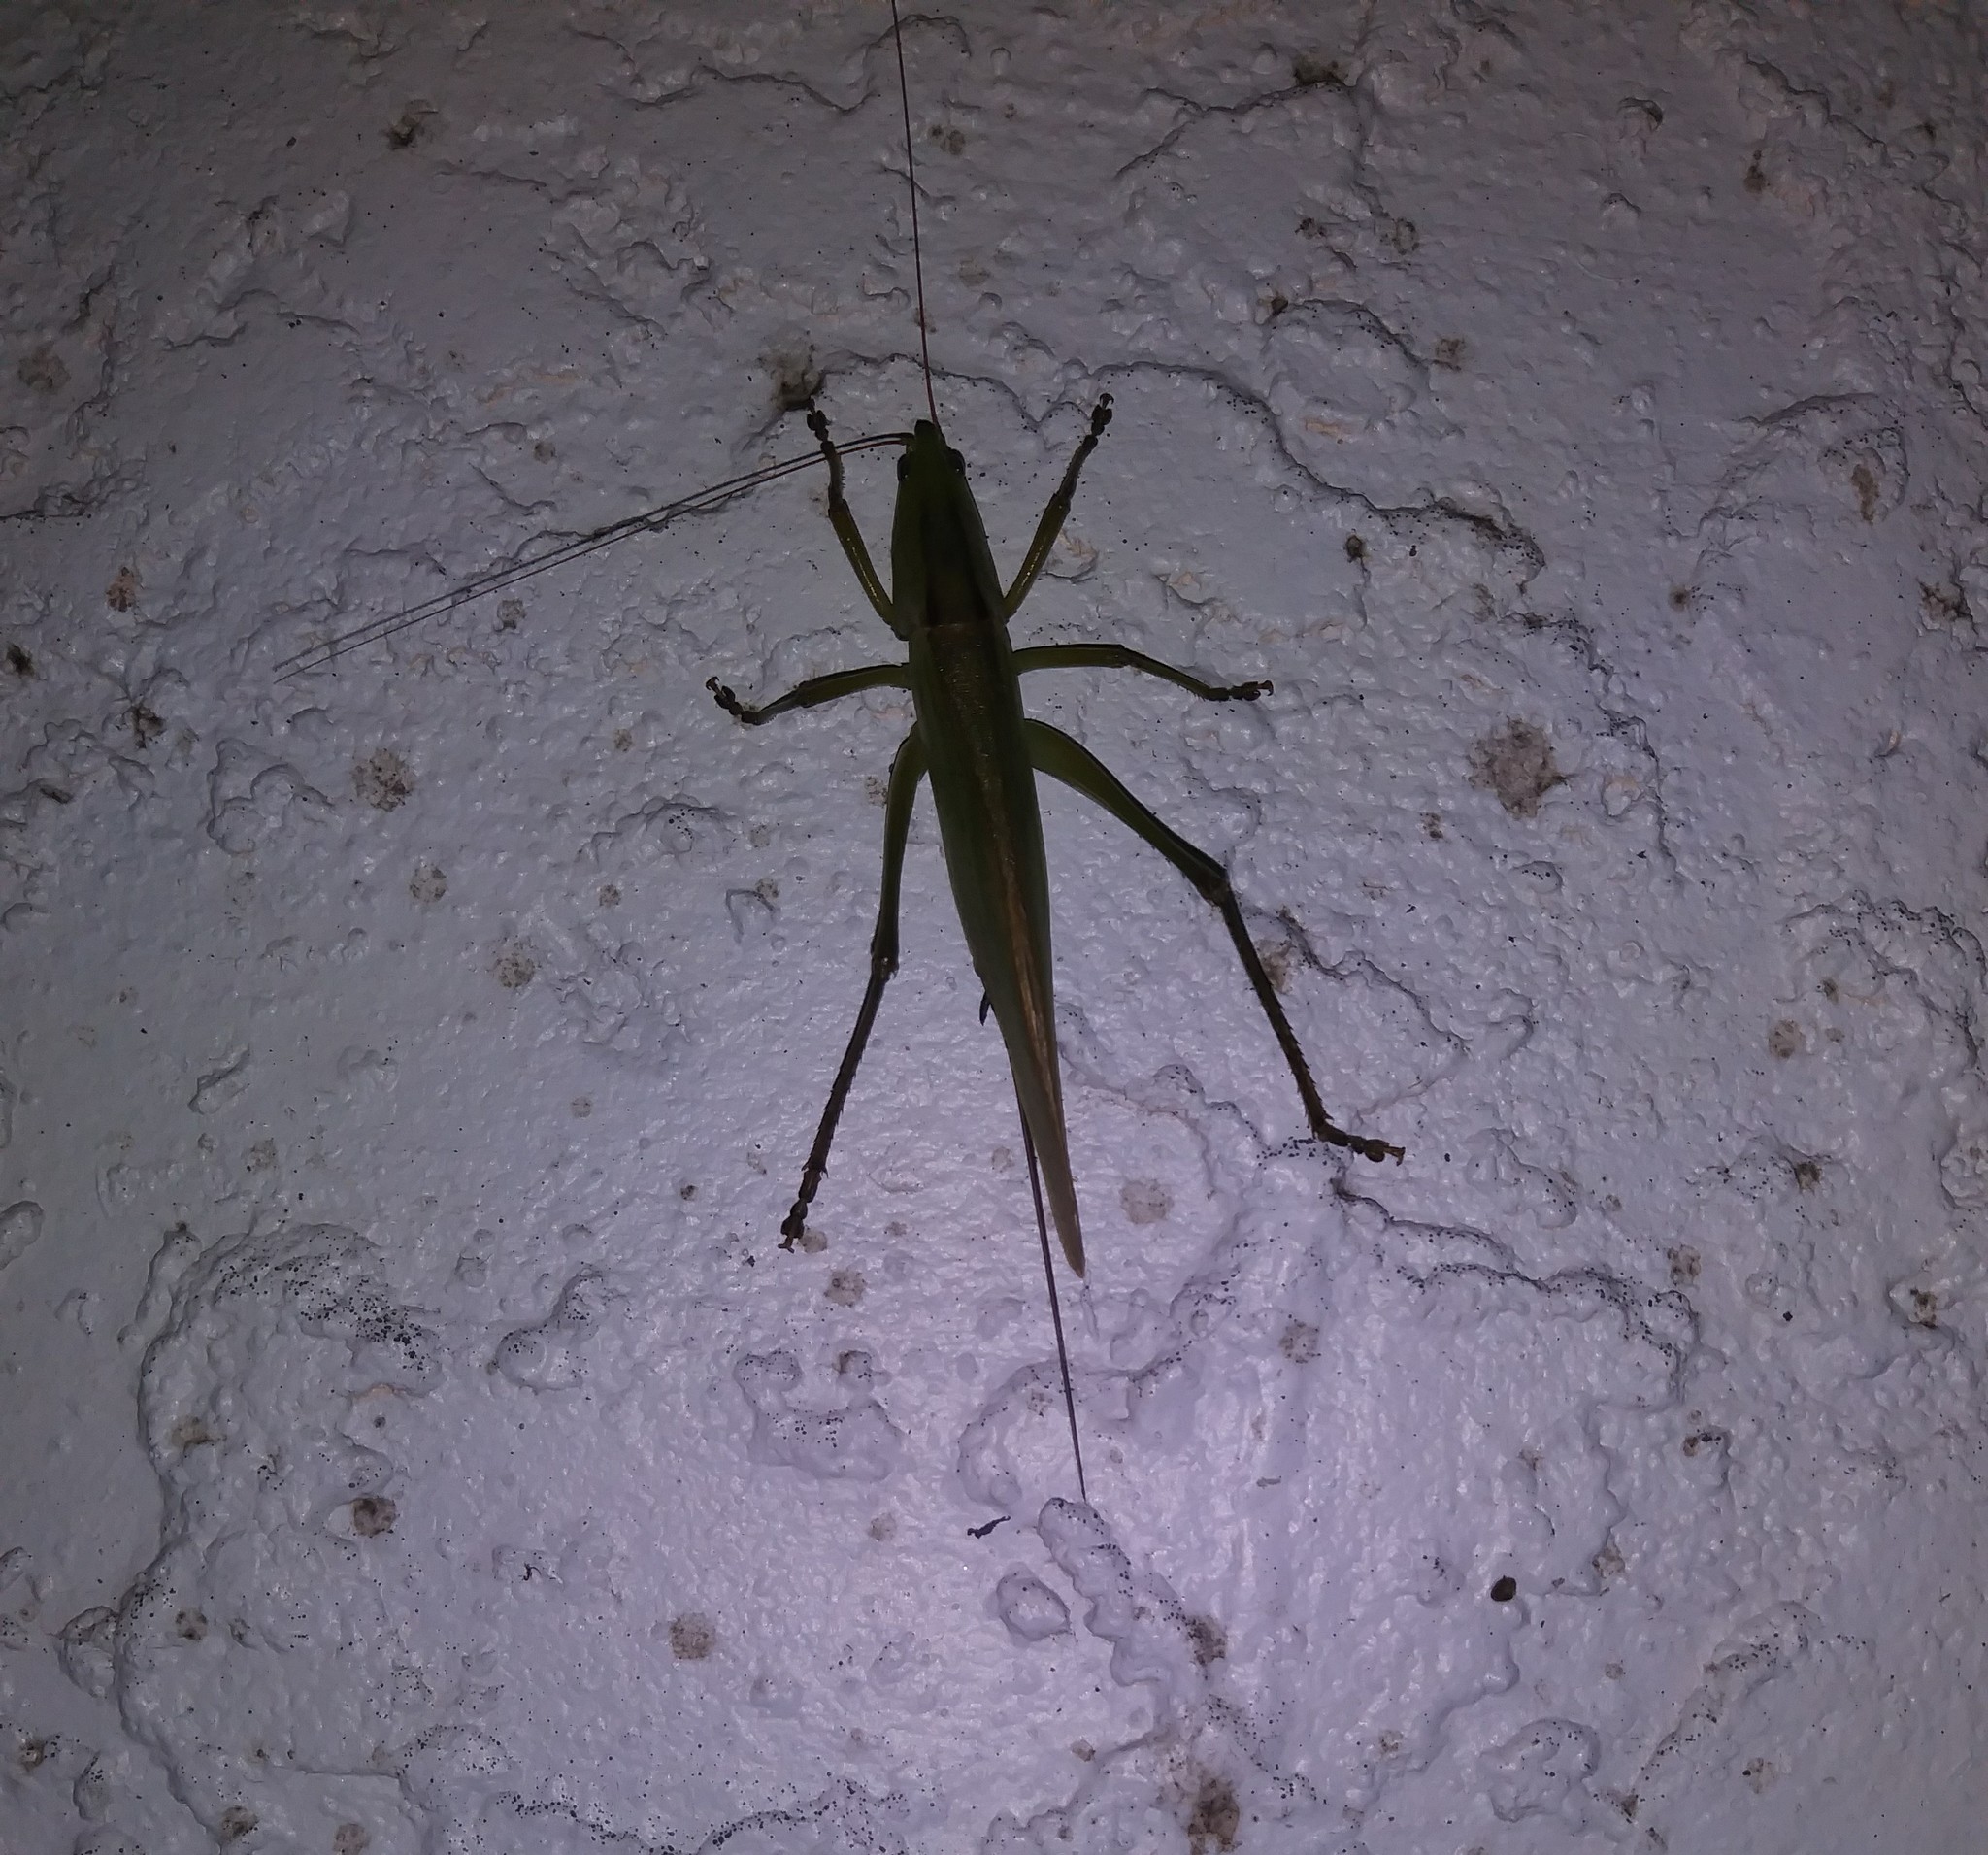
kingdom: Animalia
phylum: Arthropoda
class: Insecta
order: Orthoptera
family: Tettigoniidae
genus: Bucrates
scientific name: Bucrates malivolans
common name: Cattail conehead
